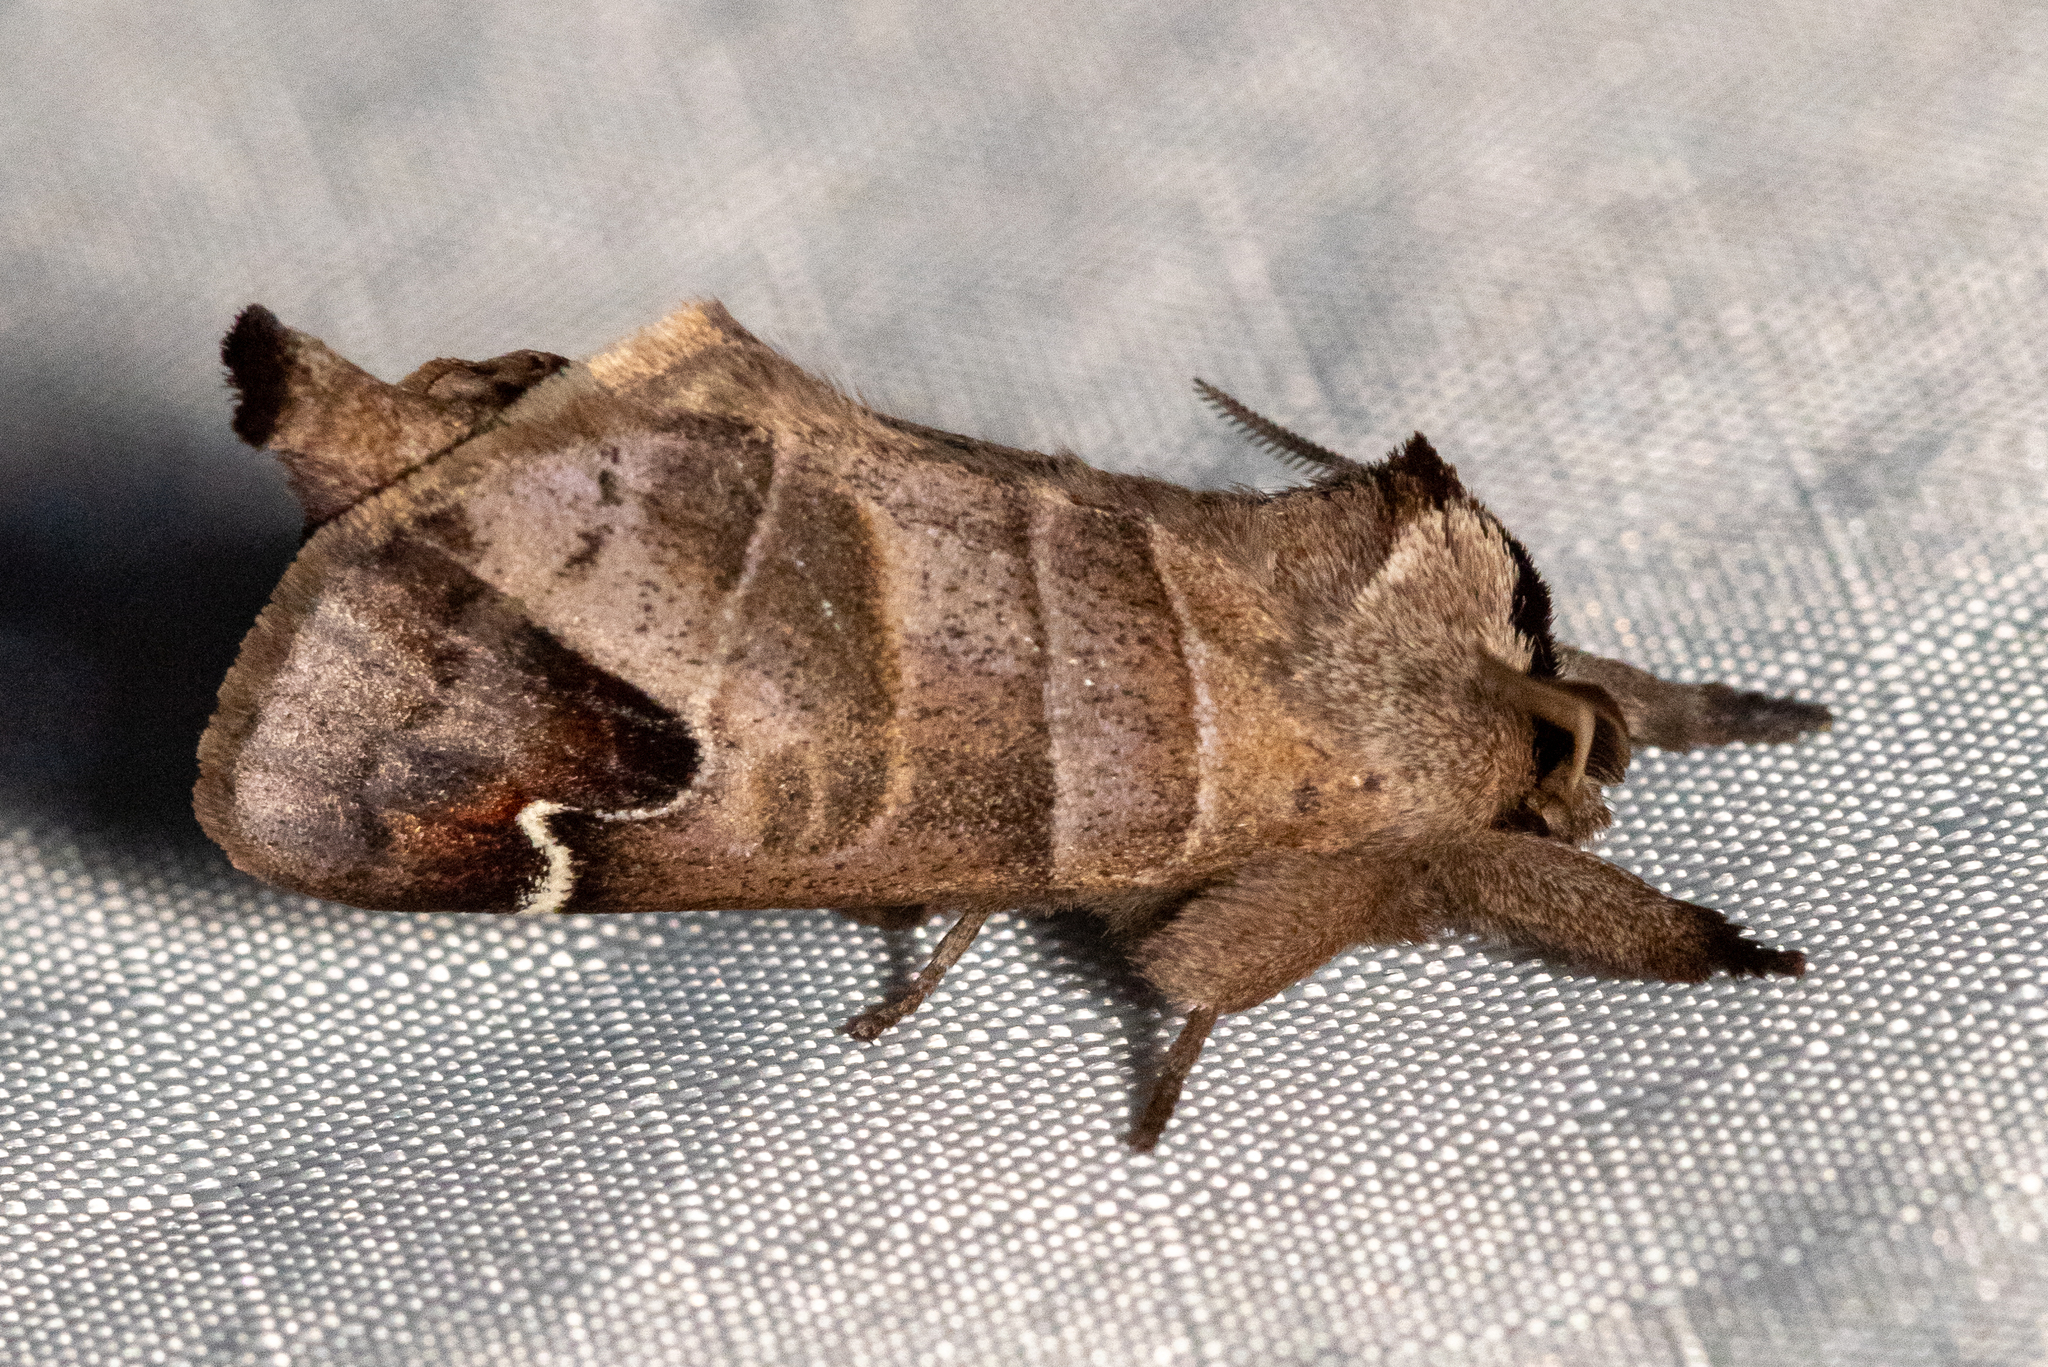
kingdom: Animalia
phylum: Arthropoda
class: Insecta
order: Lepidoptera
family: Notodontidae
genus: Clostera
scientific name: Clostera albosigma
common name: Sigmoid prominent
